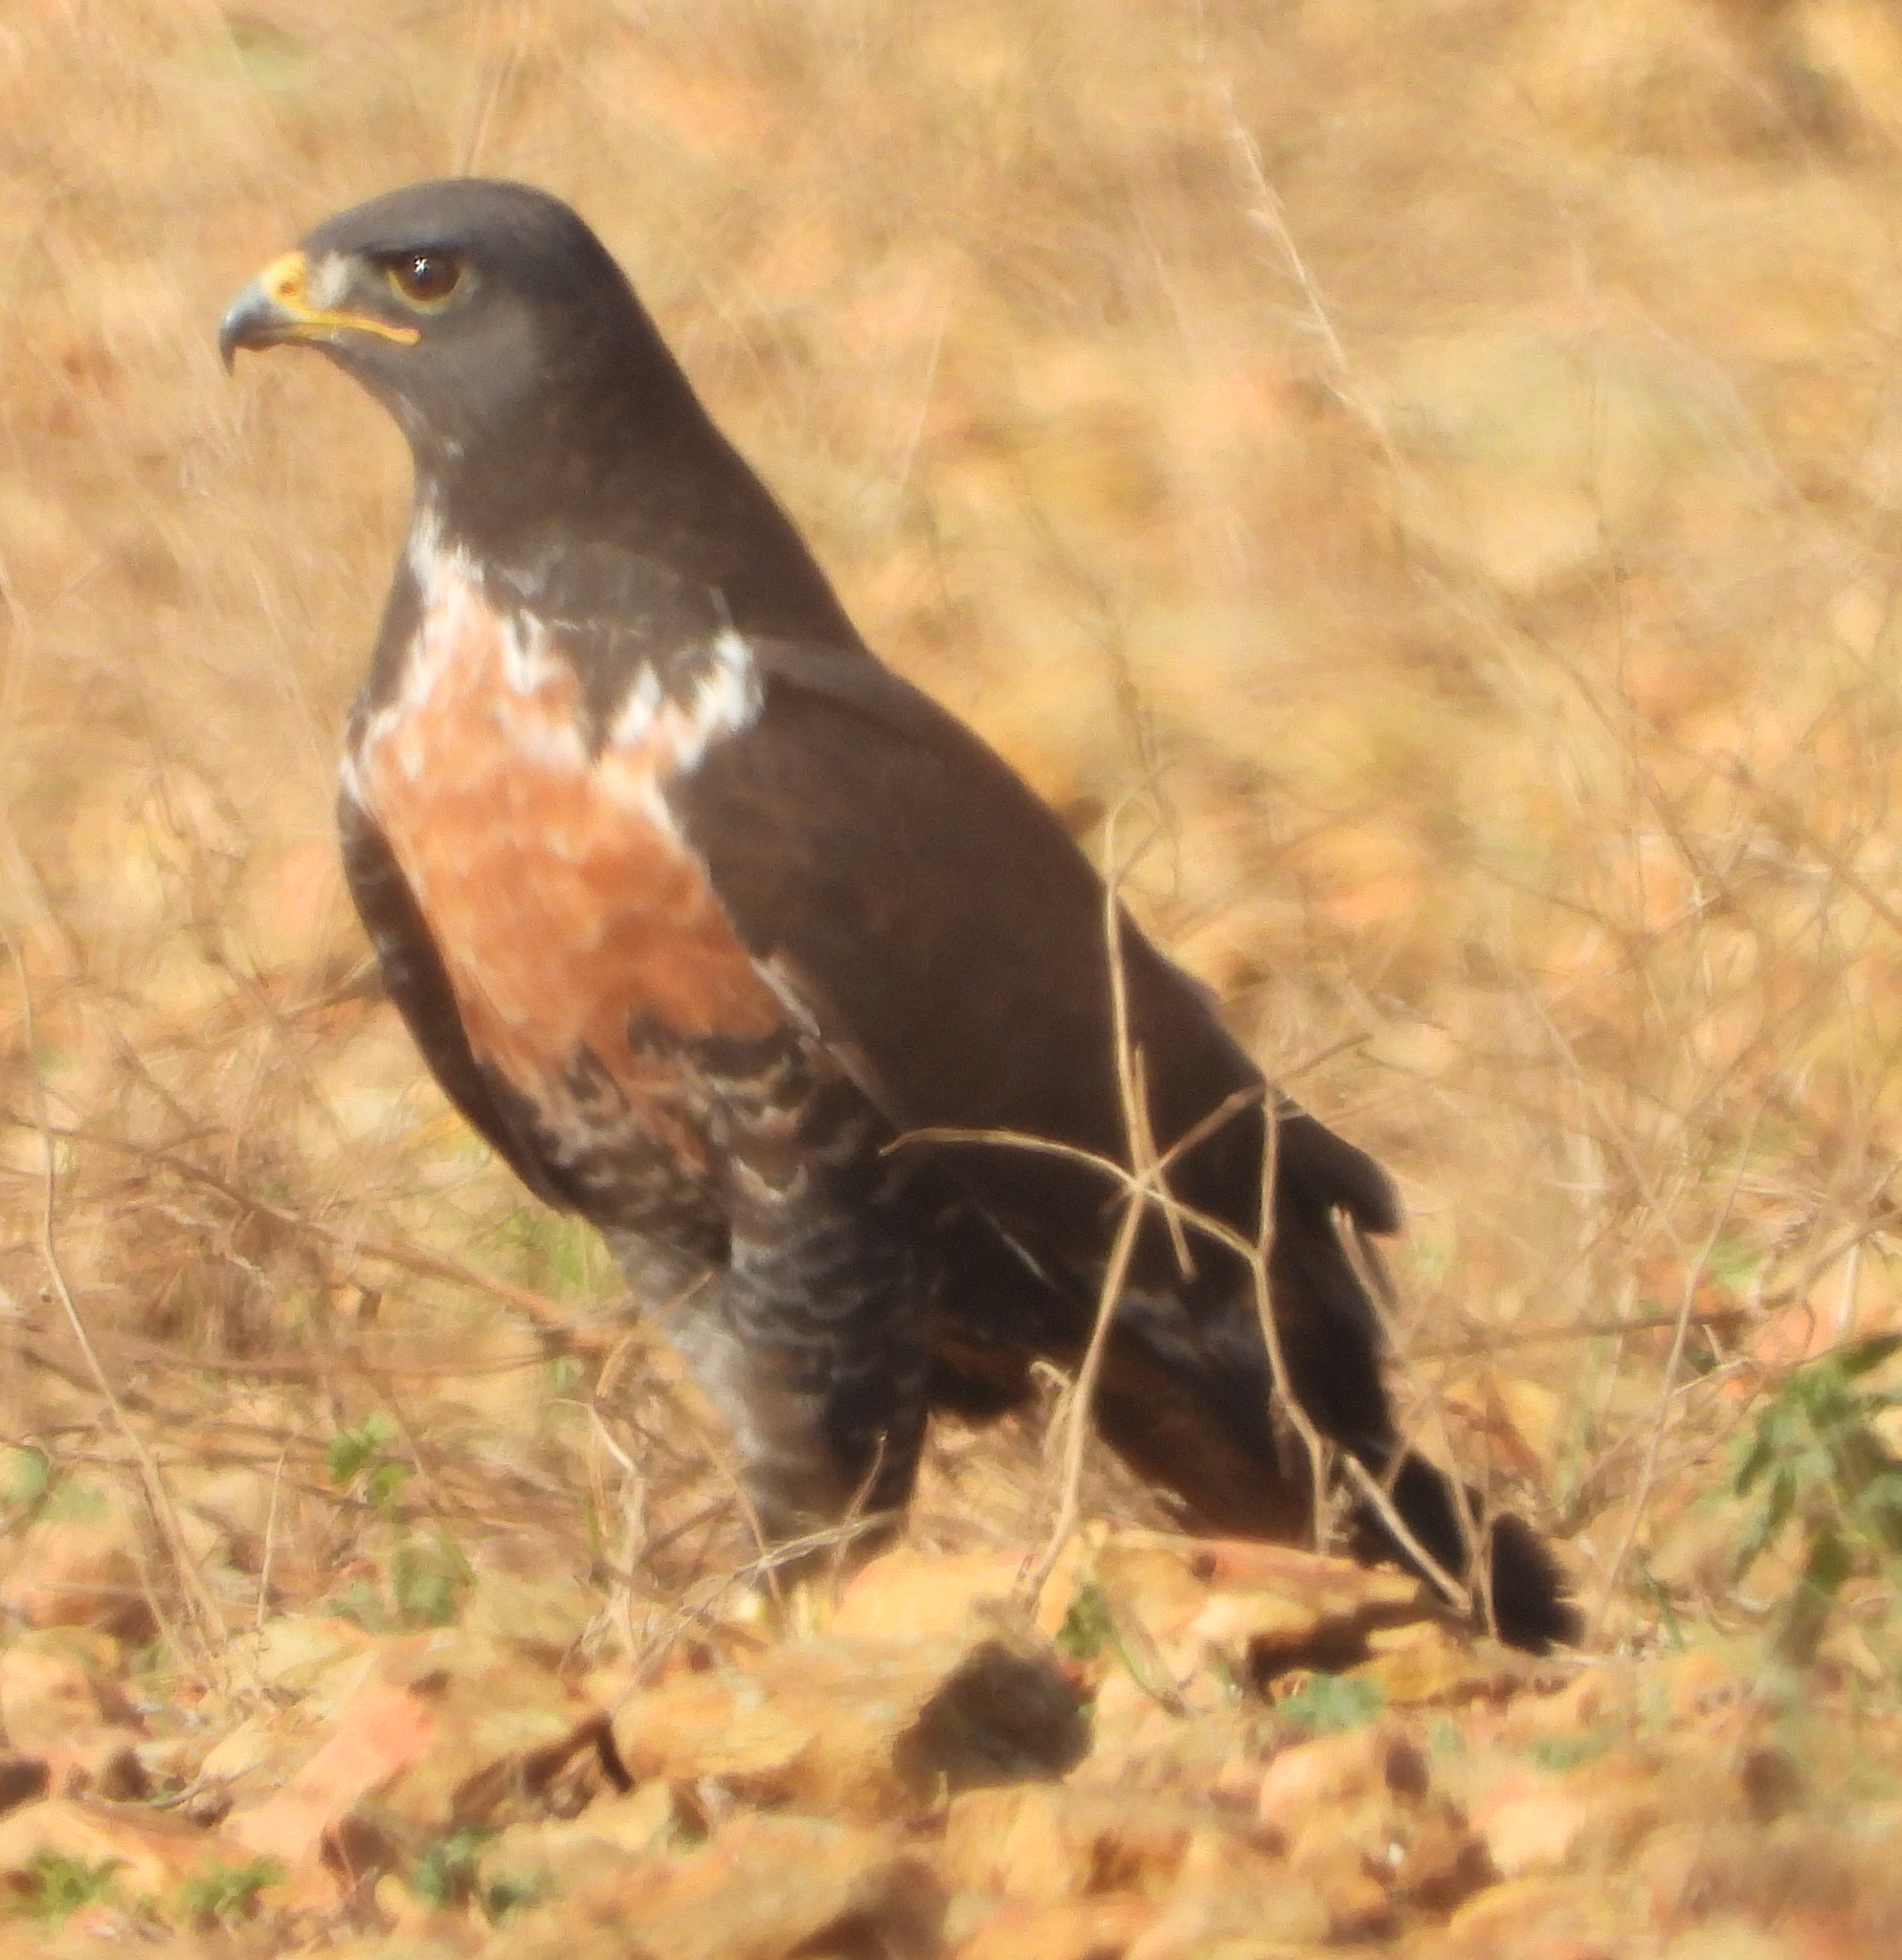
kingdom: Animalia
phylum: Chordata
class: Aves
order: Accipitriformes
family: Accipitridae
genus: Buteo
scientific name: Buteo rufofuscus
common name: Jackal buzzard
